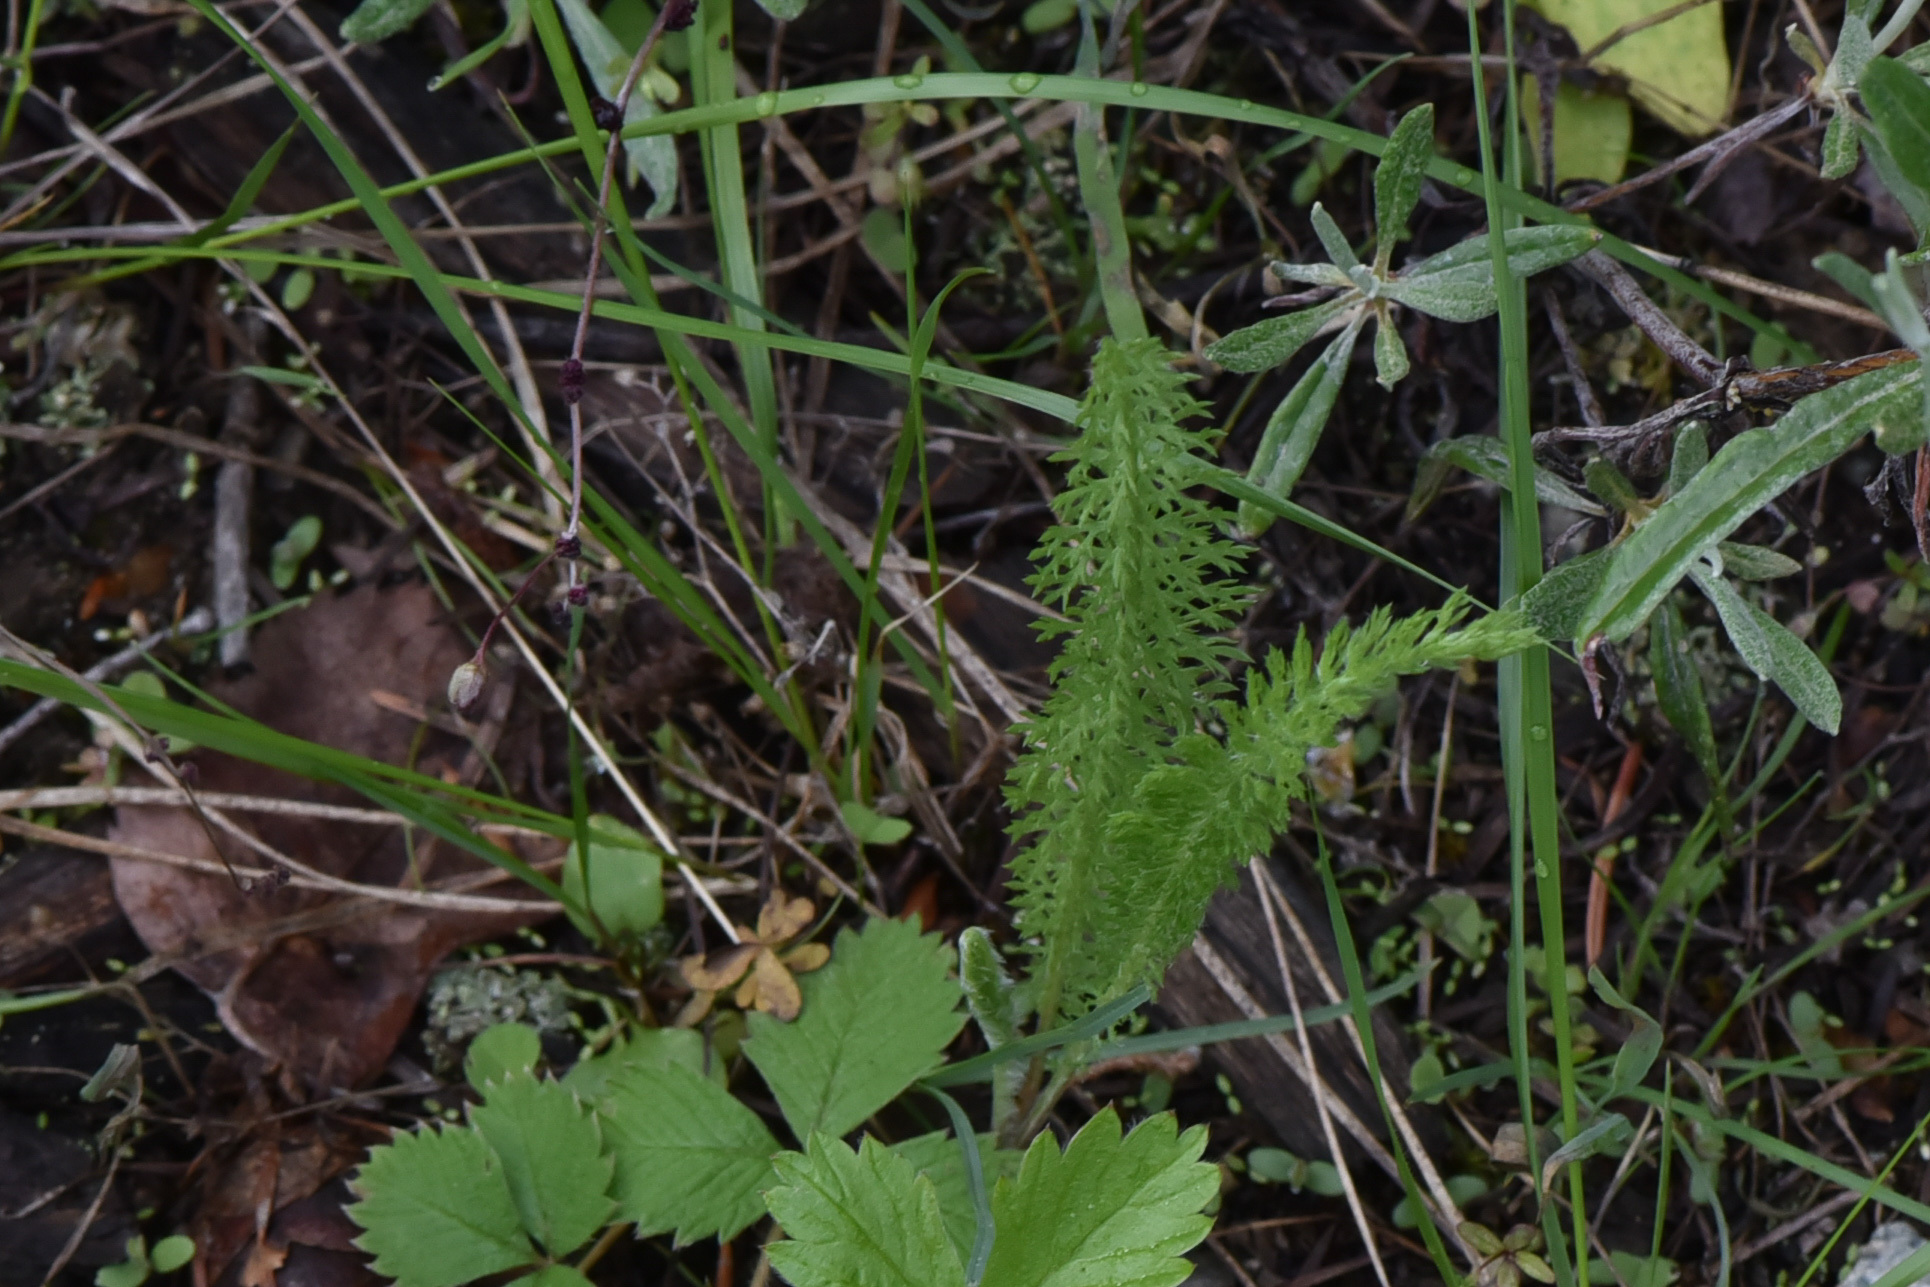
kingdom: Plantae
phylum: Tracheophyta
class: Magnoliopsida
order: Asterales
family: Asteraceae
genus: Achillea
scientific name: Achillea millefolium
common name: Yarrow
